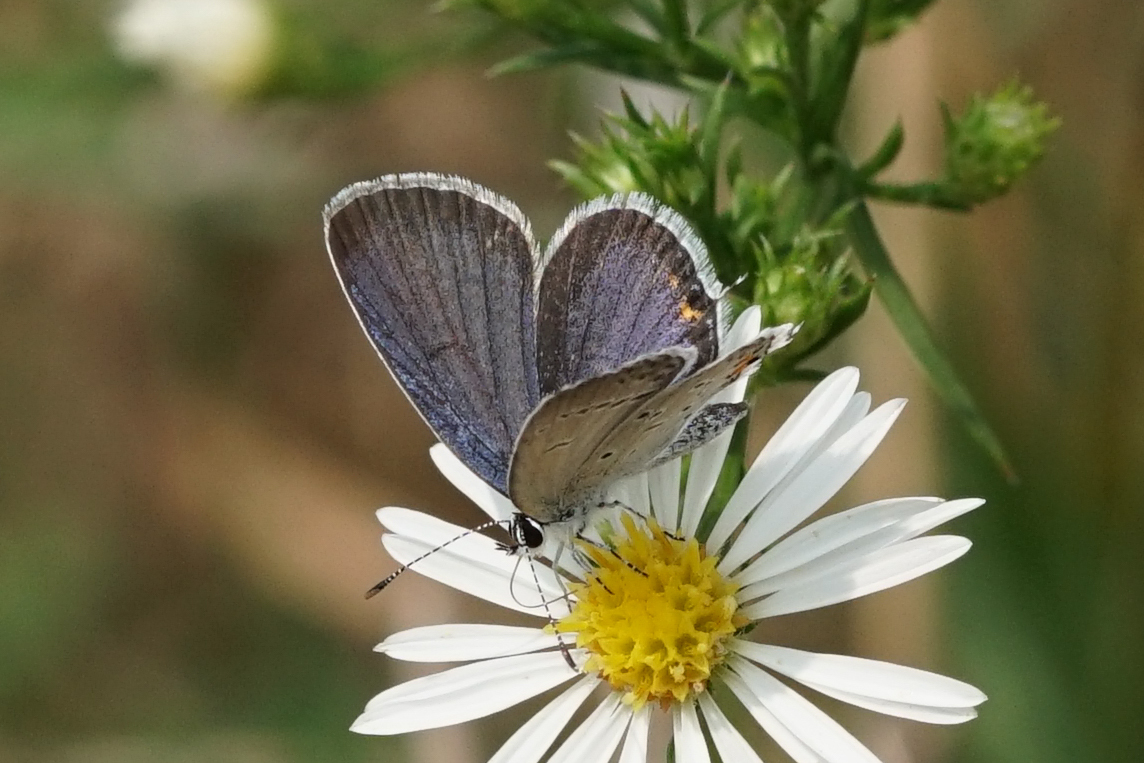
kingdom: Animalia
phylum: Arthropoda
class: Insecta
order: Lepidoptera
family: Lycaenidae
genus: Elkalyce
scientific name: Elkalyce comyntas
